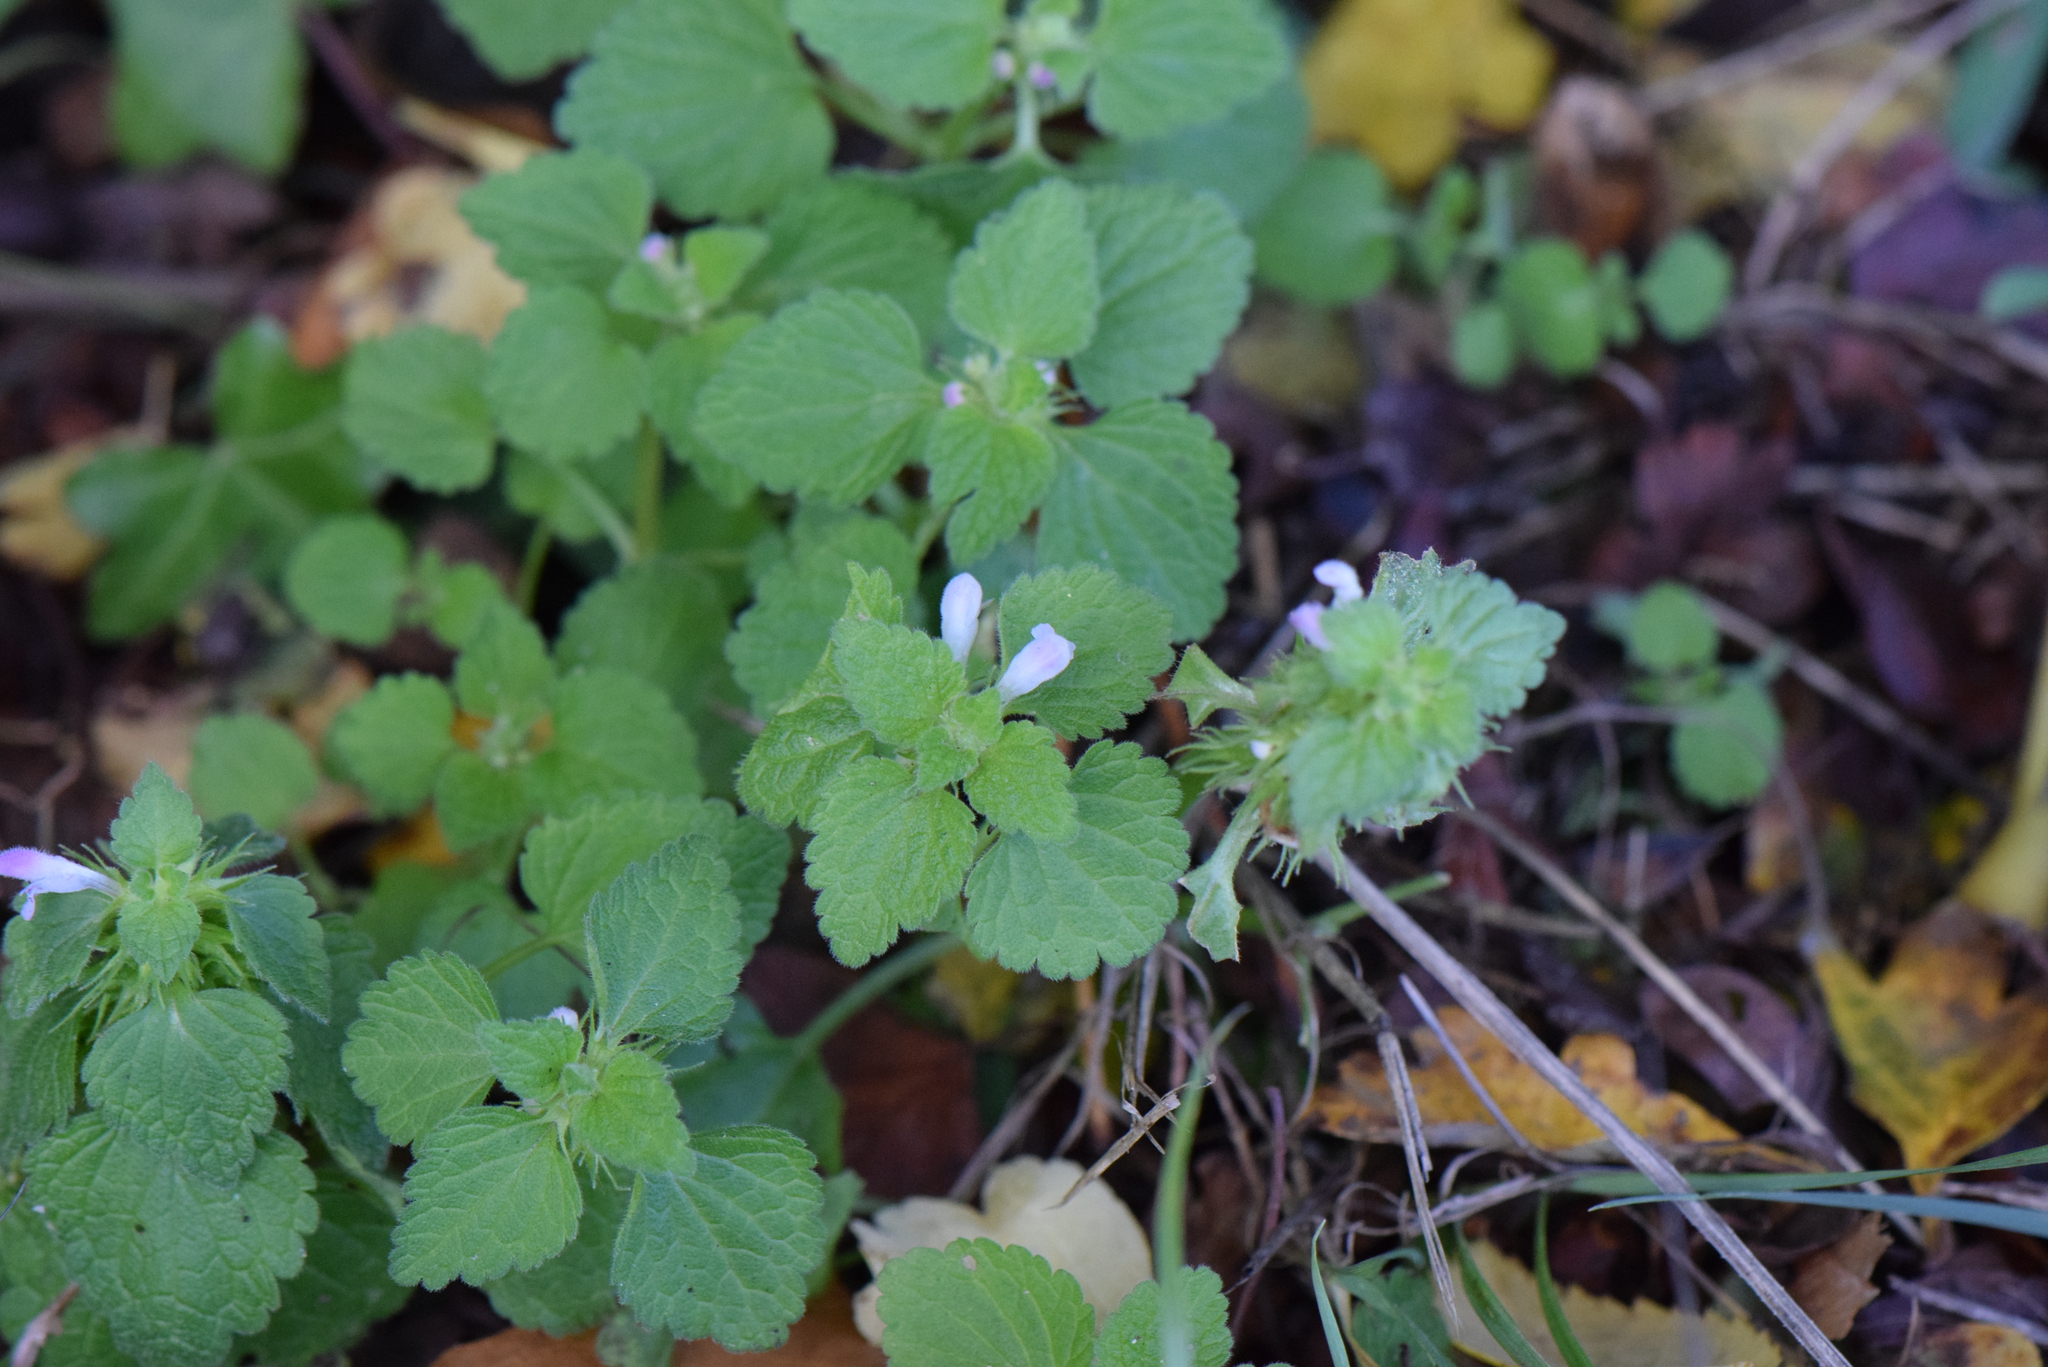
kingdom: Plantae
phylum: Tracheophyta
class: Magnoliopsida
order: Lamiales
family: Lamiaceae
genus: Lamium
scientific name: Lamium purpureum
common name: Red dead-nettle
